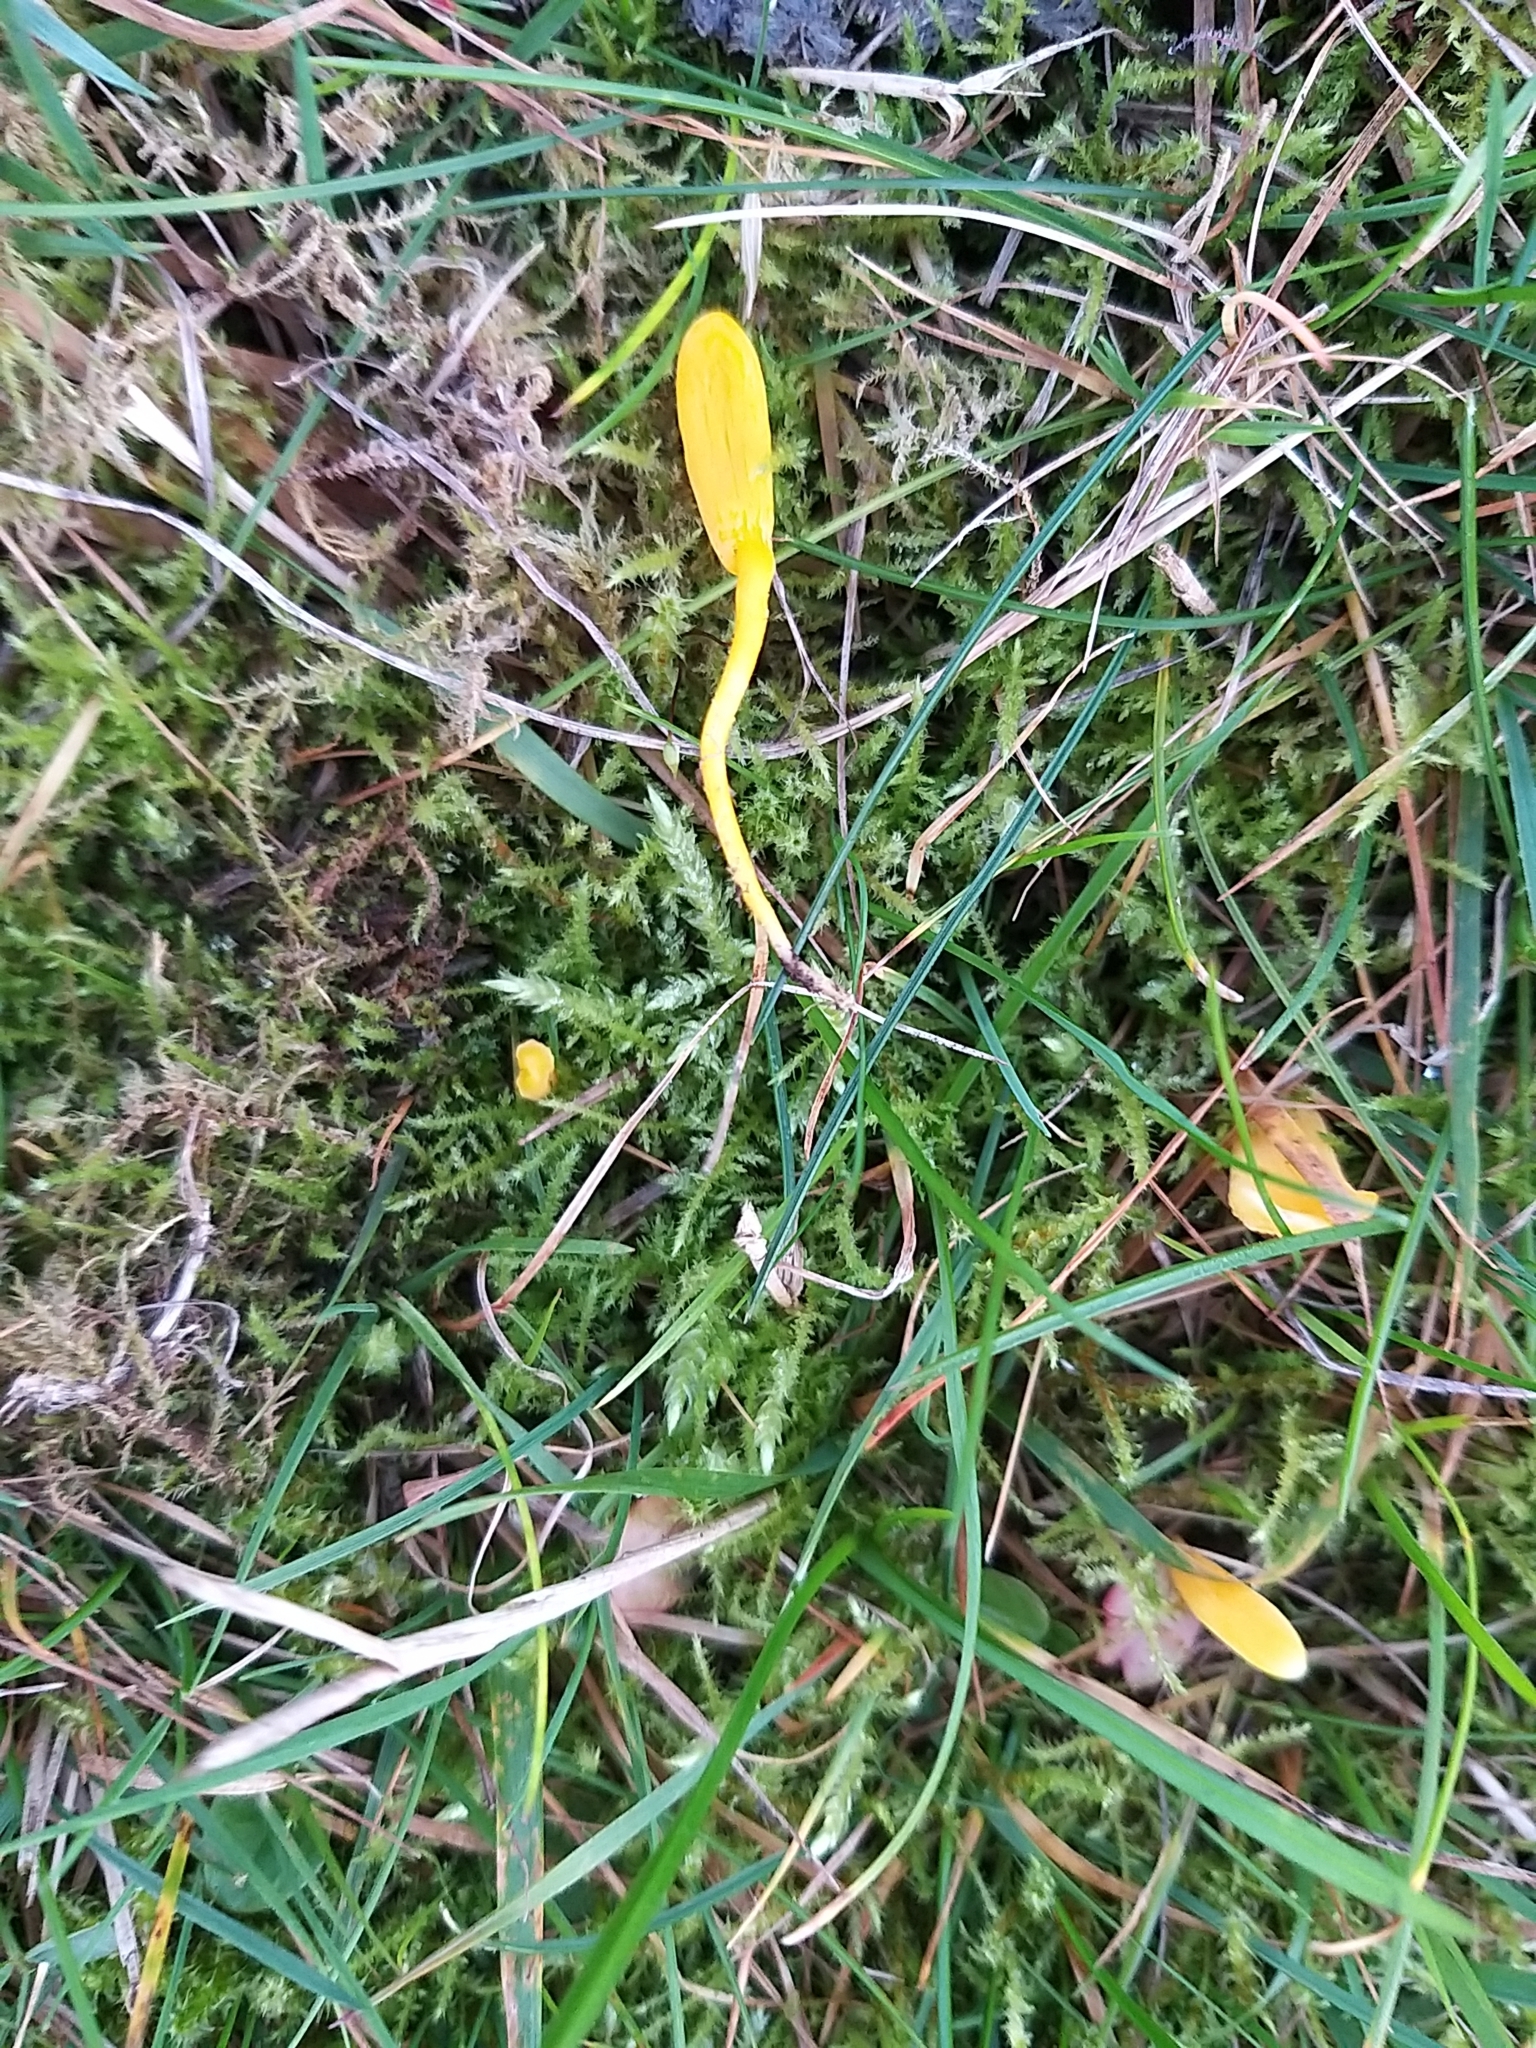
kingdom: Fungi
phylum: Basidiomycota
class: Agaricomycetes
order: Agaricales
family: Clavariaceae
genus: Clavulinopsis
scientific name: Clavulinopsis helvola
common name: Yellow club
